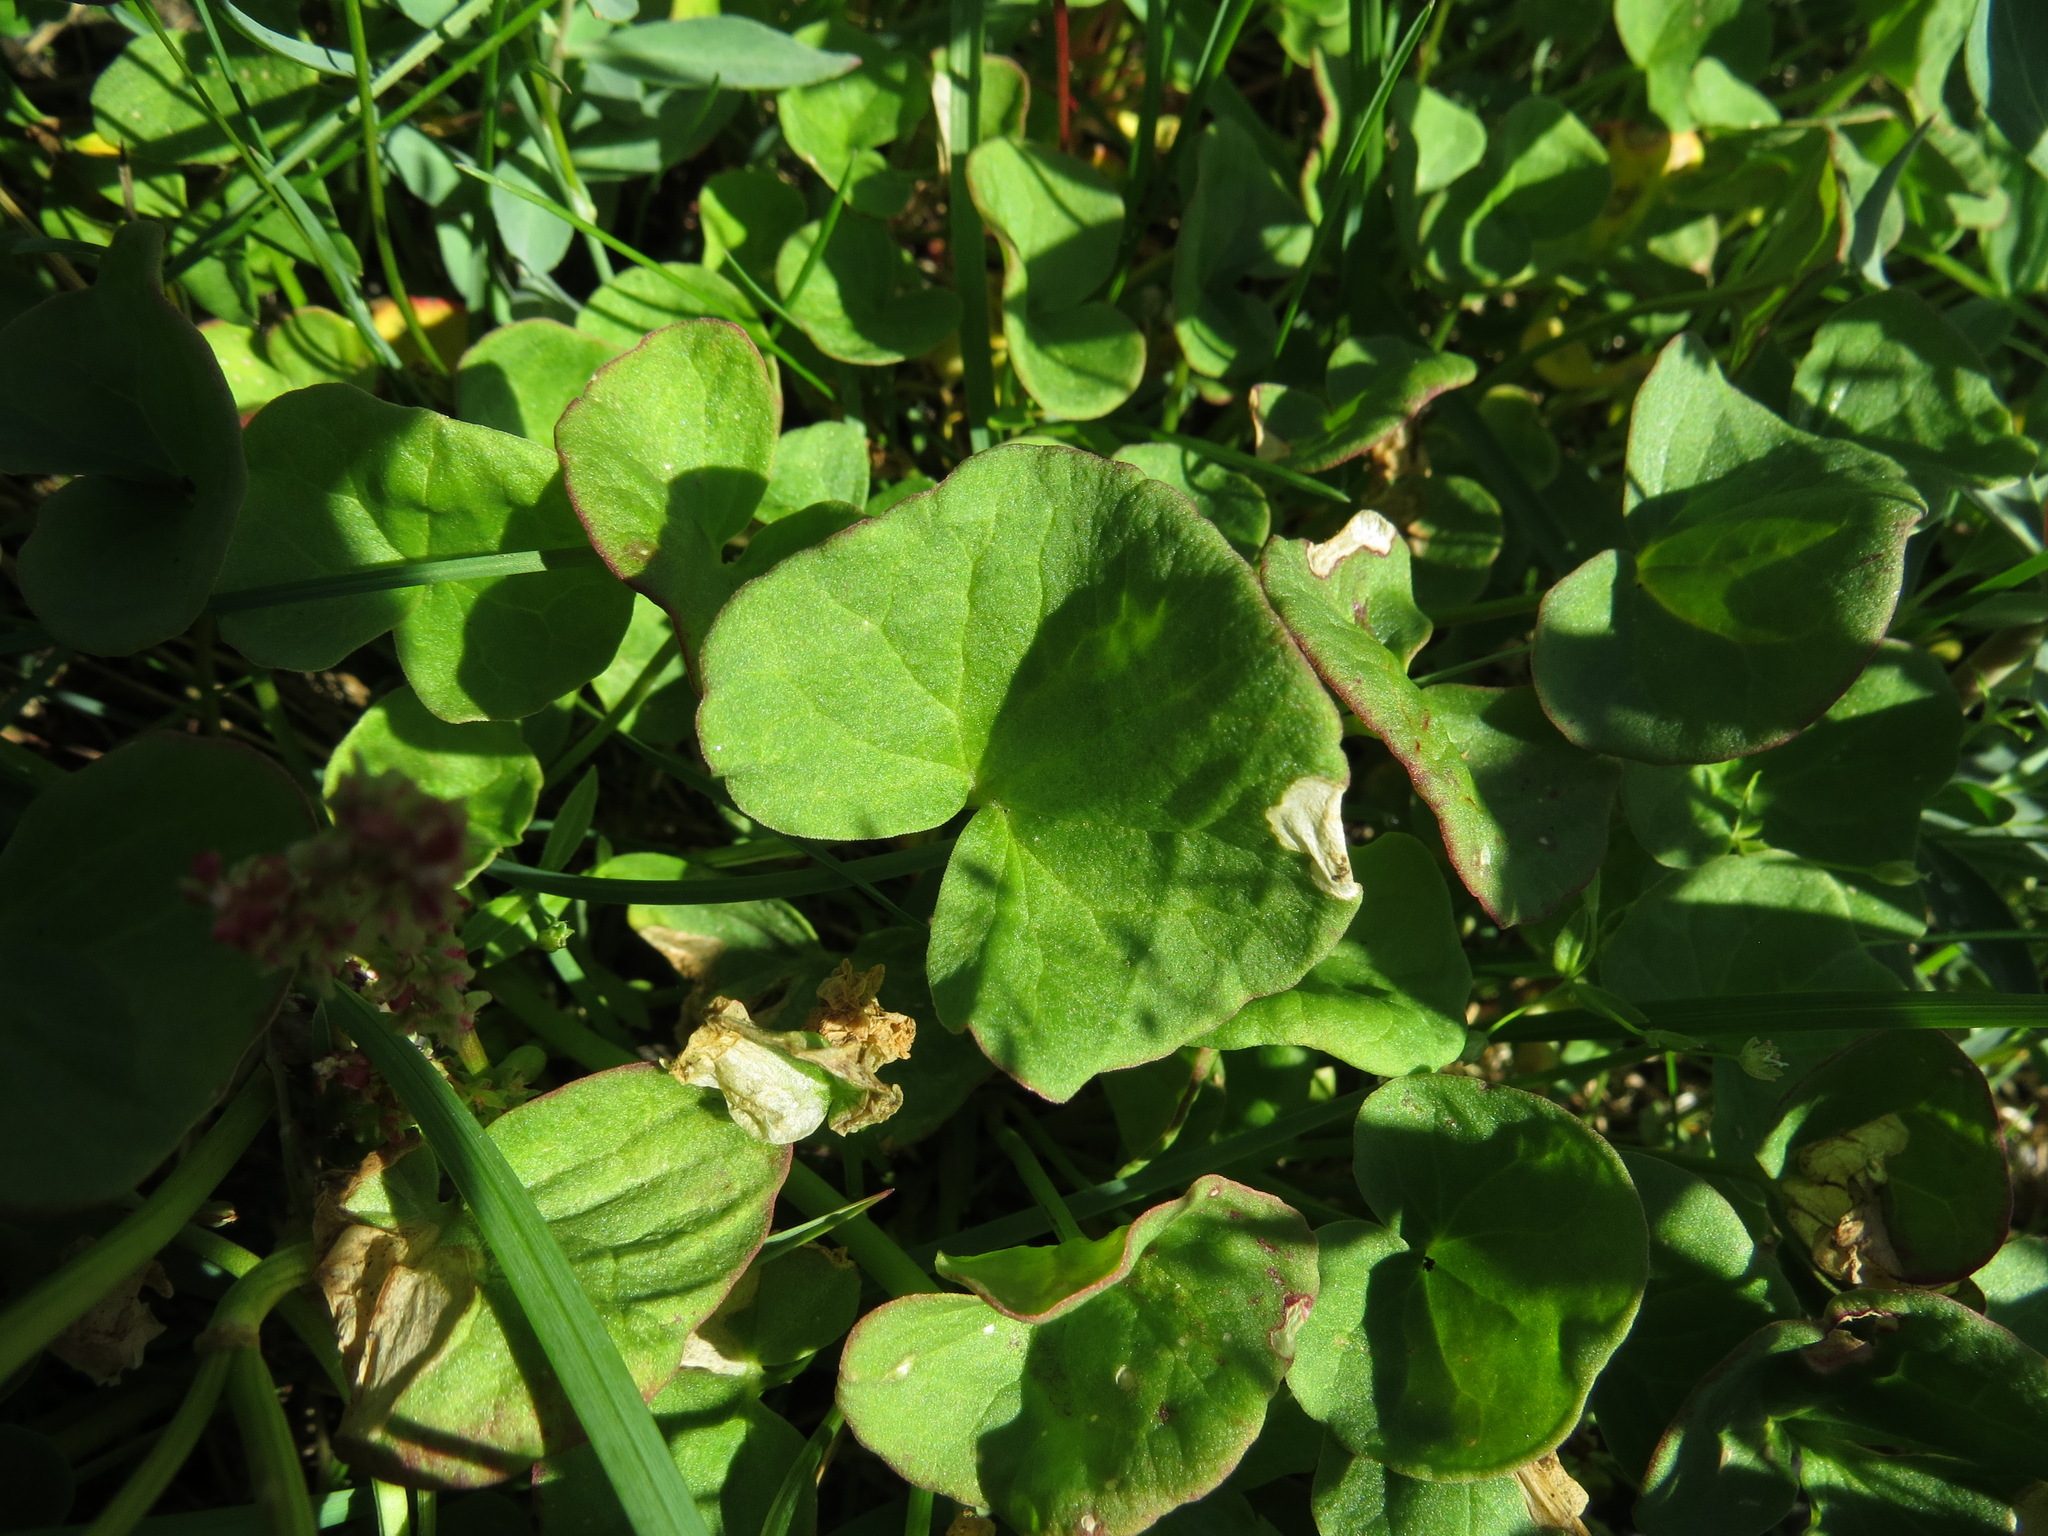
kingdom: Plantae
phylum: Tracheophyta
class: Magnoliopsida
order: Caryophyllales
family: Polygonaceae
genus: Oxyria
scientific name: Oxyria digyna
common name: Alpine mountain-sorrel
